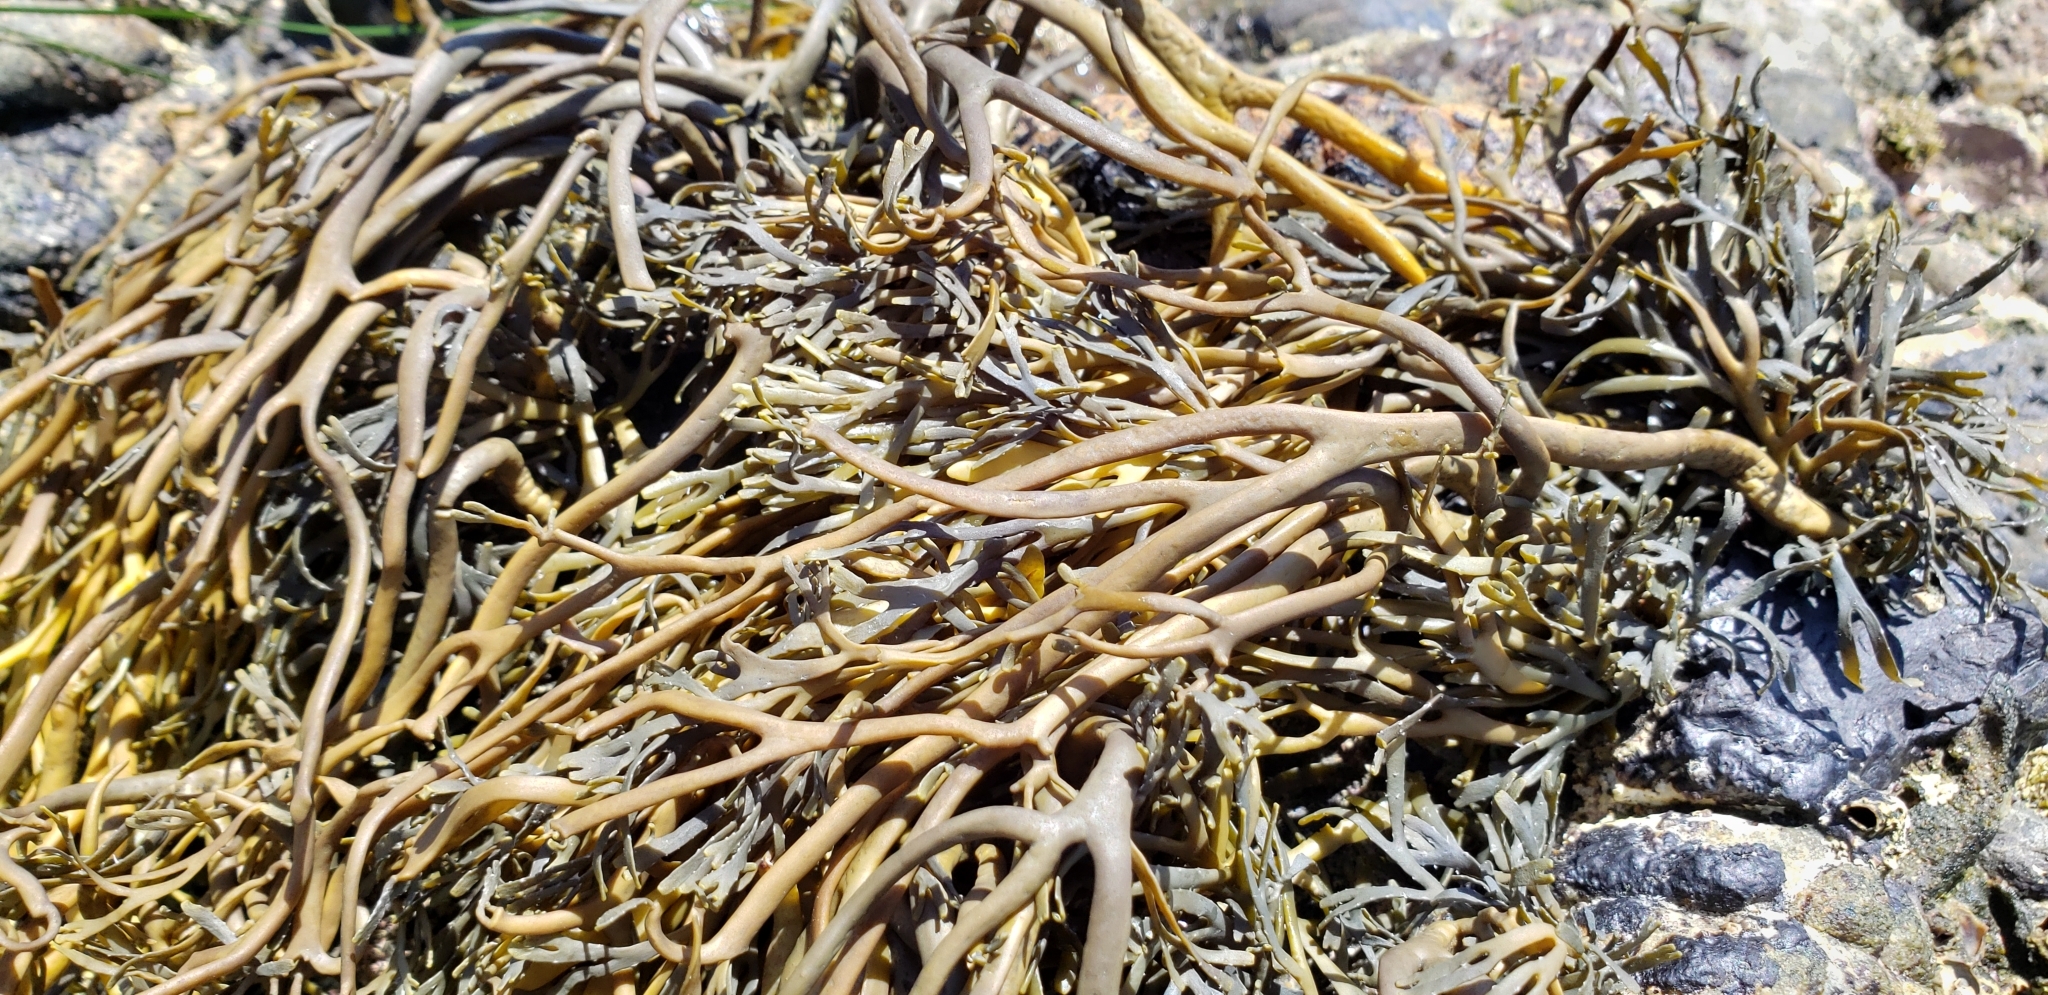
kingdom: Chromista
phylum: Ochrophyta
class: Phaeophyceae
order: Fucales
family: Fucaceae
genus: Silvetia
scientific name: Silvetia
